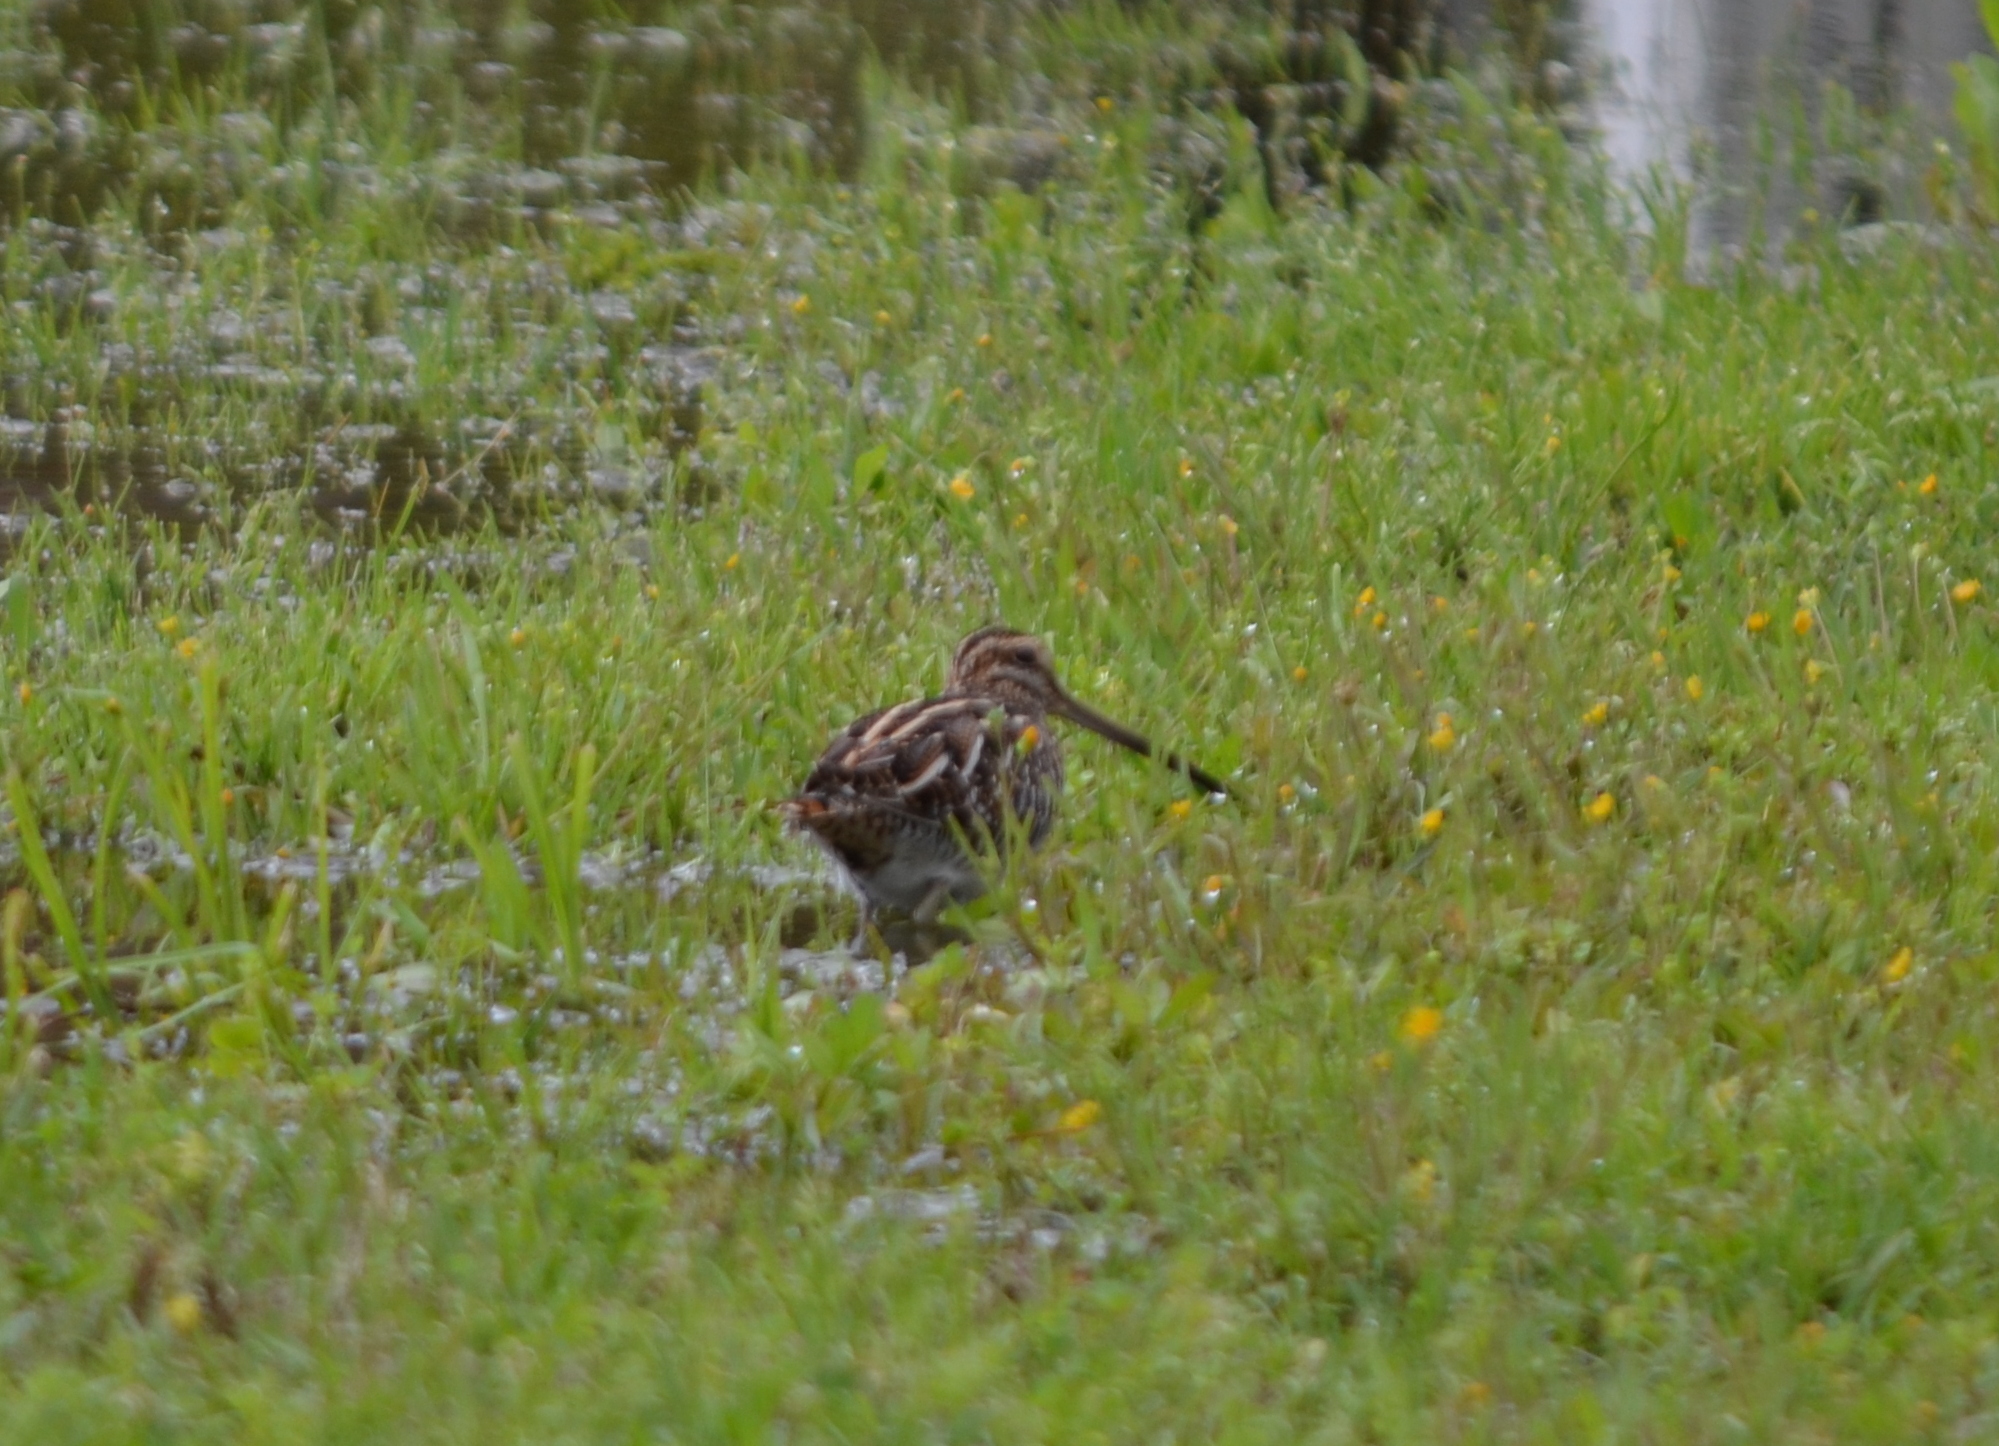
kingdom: Animalia
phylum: Chordata
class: Aves
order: Charadriiformes
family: Scolopacidae
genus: Gallinago
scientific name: Gallinago delicata
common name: Wilson's snipe
